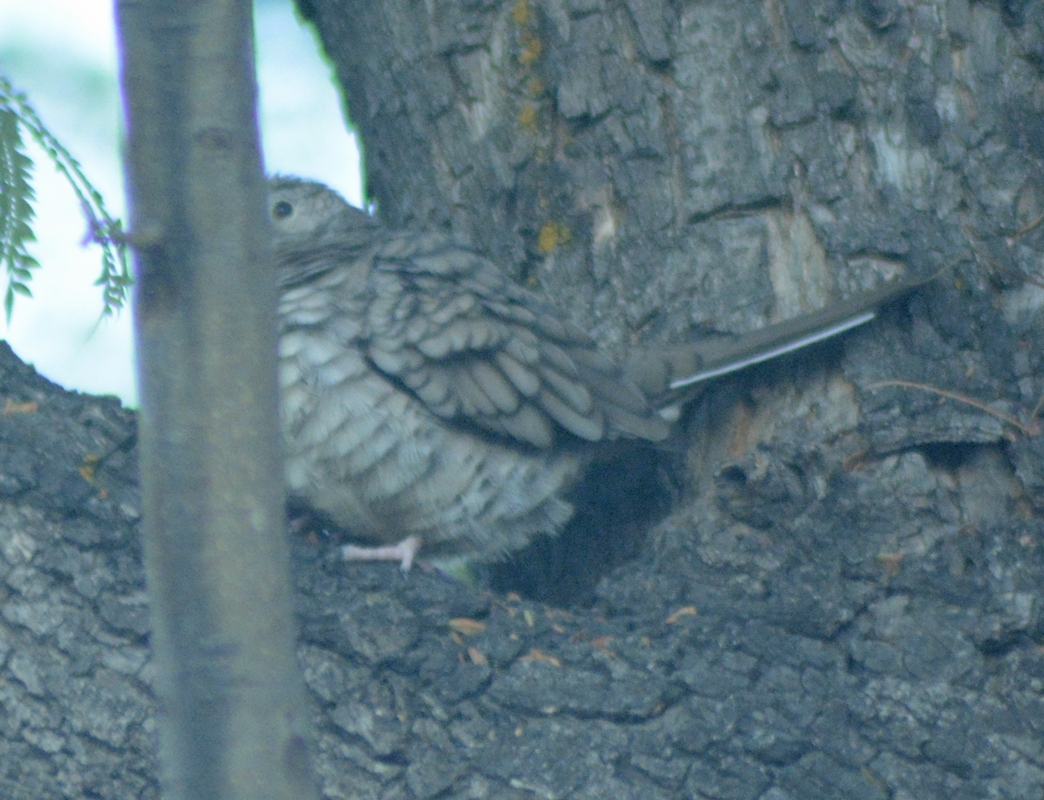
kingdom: Animalia
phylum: Chordata
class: Aves
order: Columbiformes
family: Columbidae
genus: Columbina
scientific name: Columbina inca
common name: Inca dove
